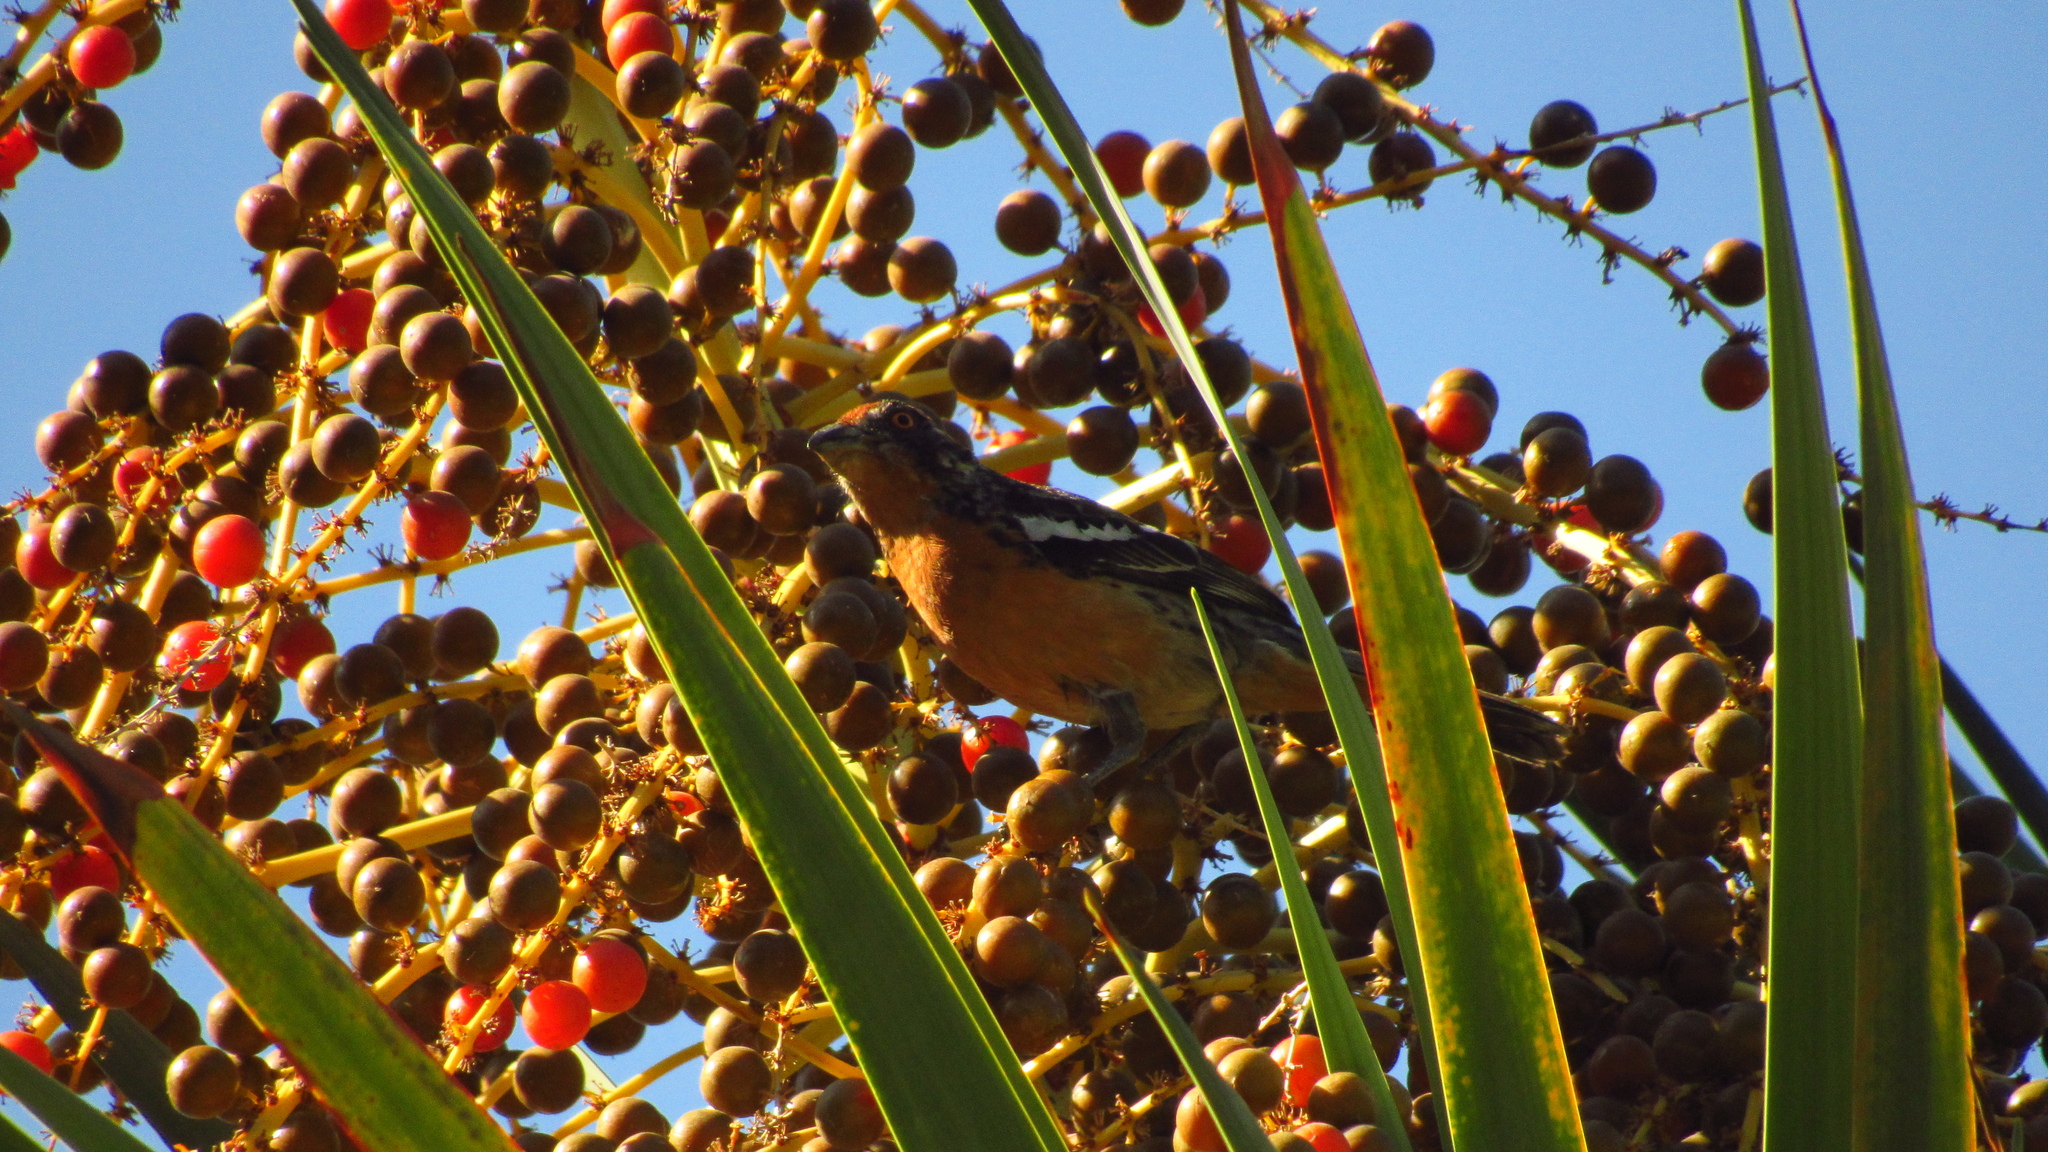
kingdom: Animalia
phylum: Chordata
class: Aves
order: Passeriformes
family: Cotingidae
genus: Phytotoma
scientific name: Phytotoma rara
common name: Rufous-tailed plantcutter
